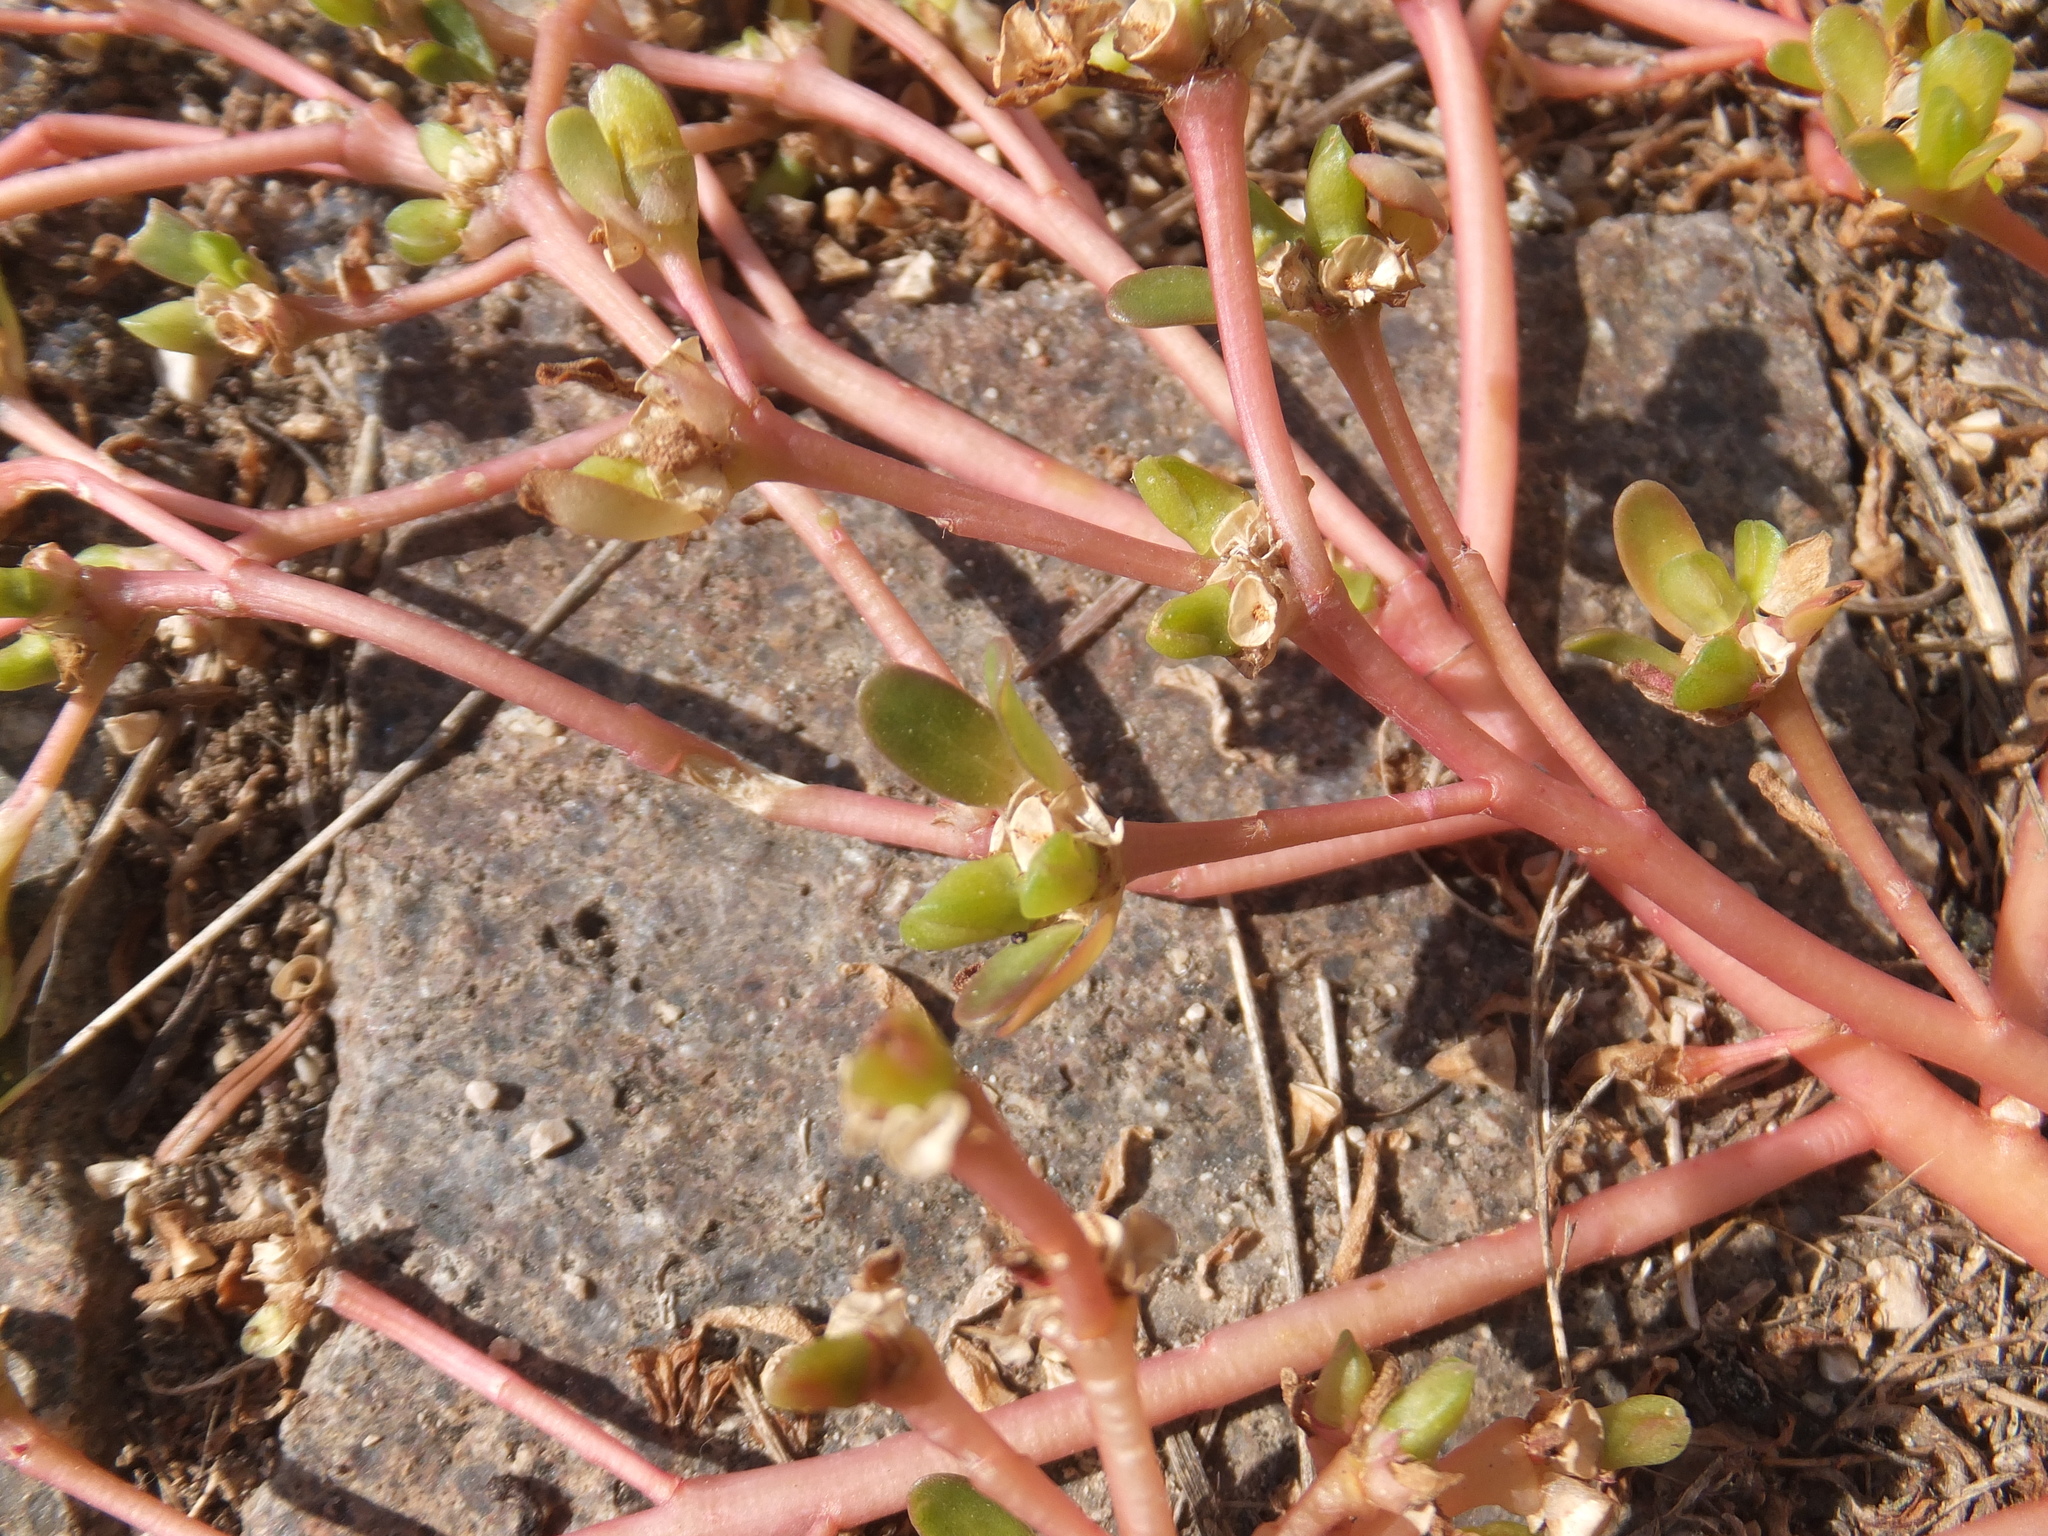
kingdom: Plantae
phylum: Tracheophyta
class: Magnoliopsida
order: Caryophyllales
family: Portulacaceae
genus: Portulaca
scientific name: Portulaca oleracea
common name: Common purslane
